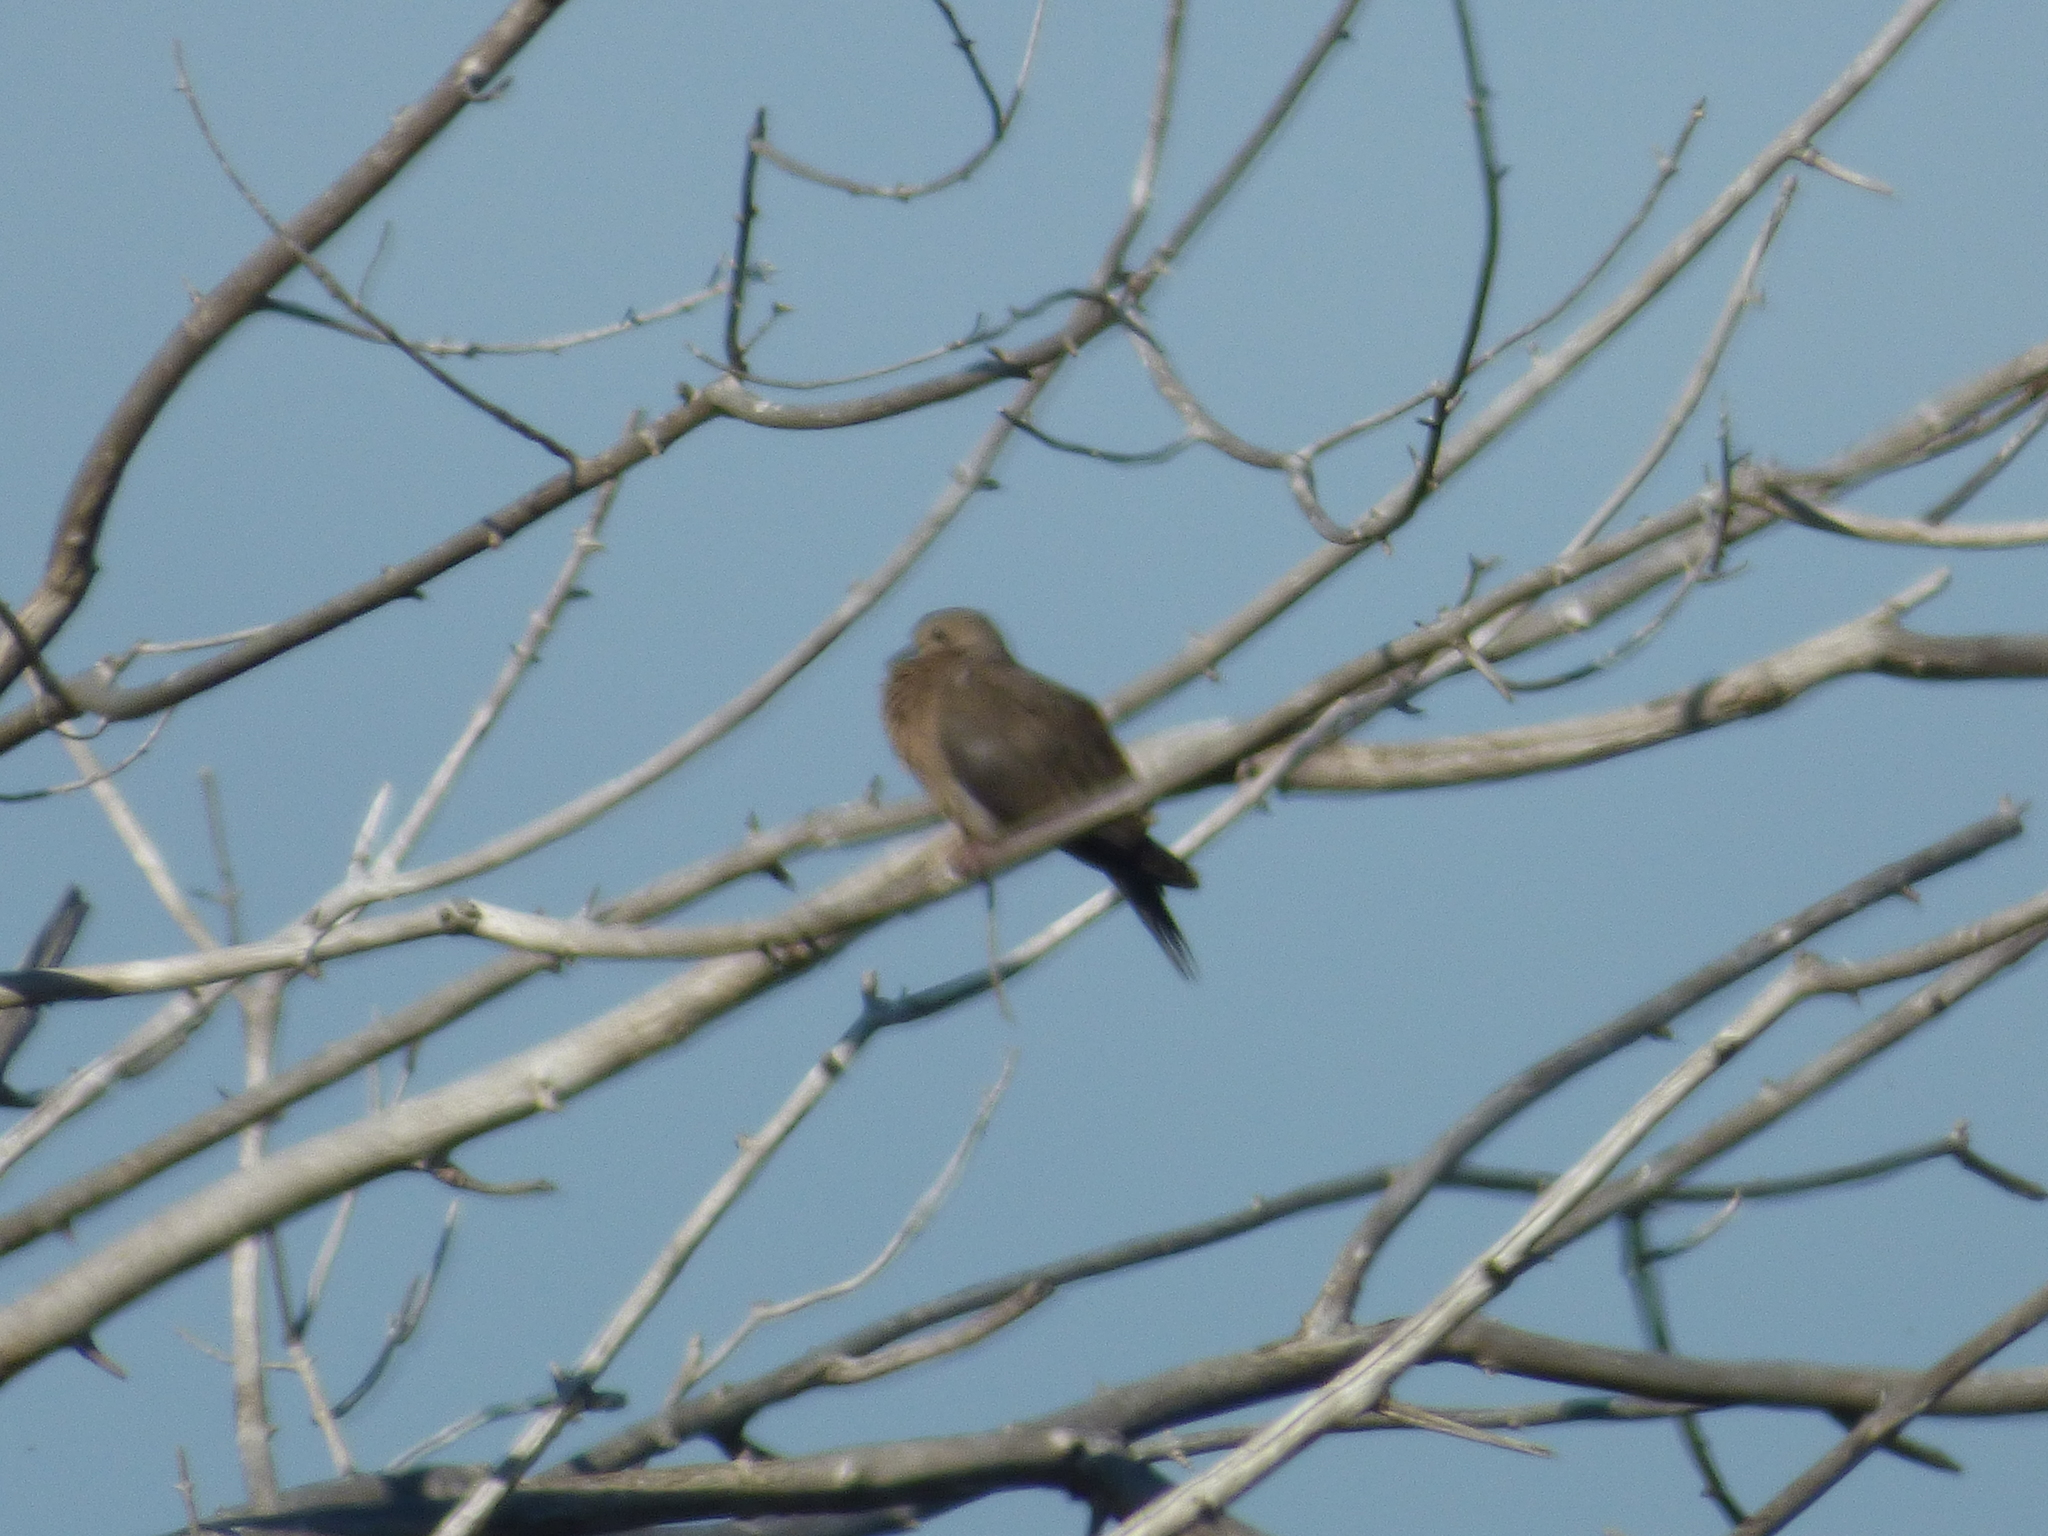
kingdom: Animalia
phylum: Chordata
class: Aves
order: Columbiformes
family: Columbidae
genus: Zenaida
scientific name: Zenaida macroura
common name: Mourning dove
